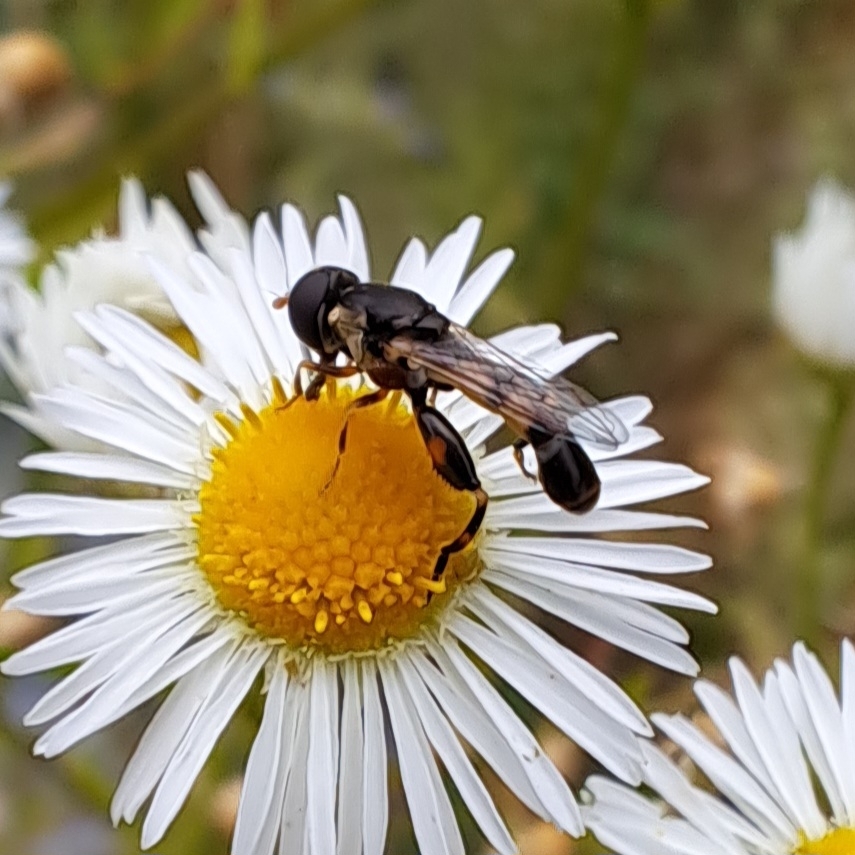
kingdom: Animalia
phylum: Arthropoda
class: Insecta
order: Diptera
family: Syrphidae
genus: Syritta
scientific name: Syritta pipiens
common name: Hover fly
